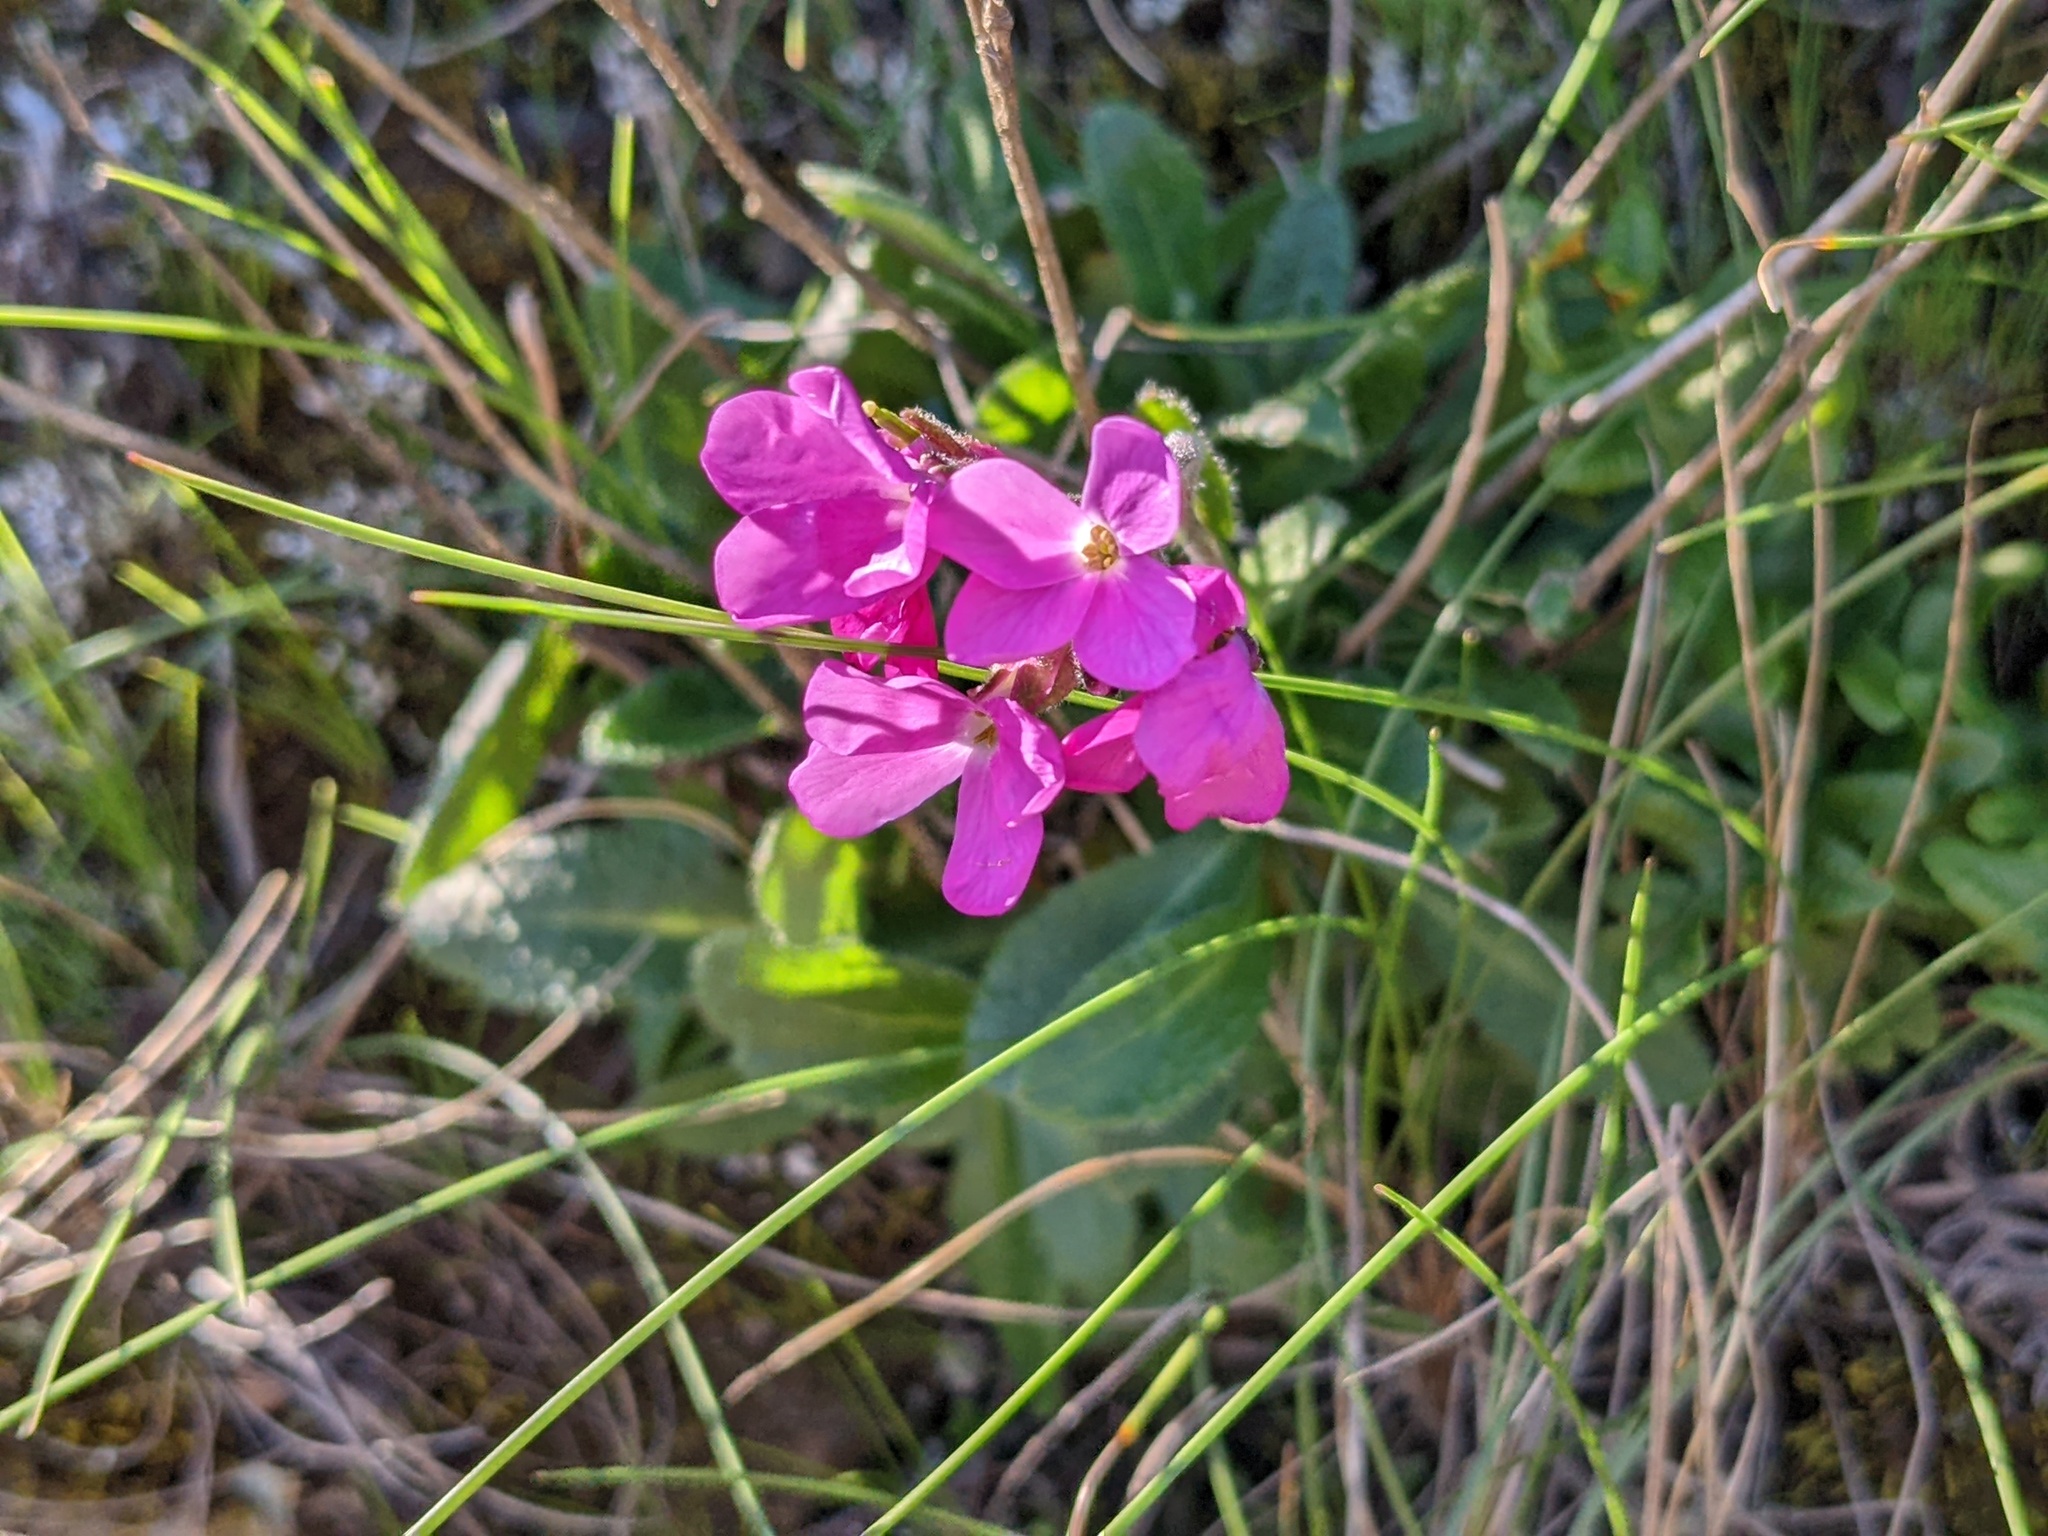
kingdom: Plantae
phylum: Tracheophyta
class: Magnoliopsida
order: Brassicales
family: Brassicaceae
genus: Arabis
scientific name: Arabis blepharophylla
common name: Rose rockcress
